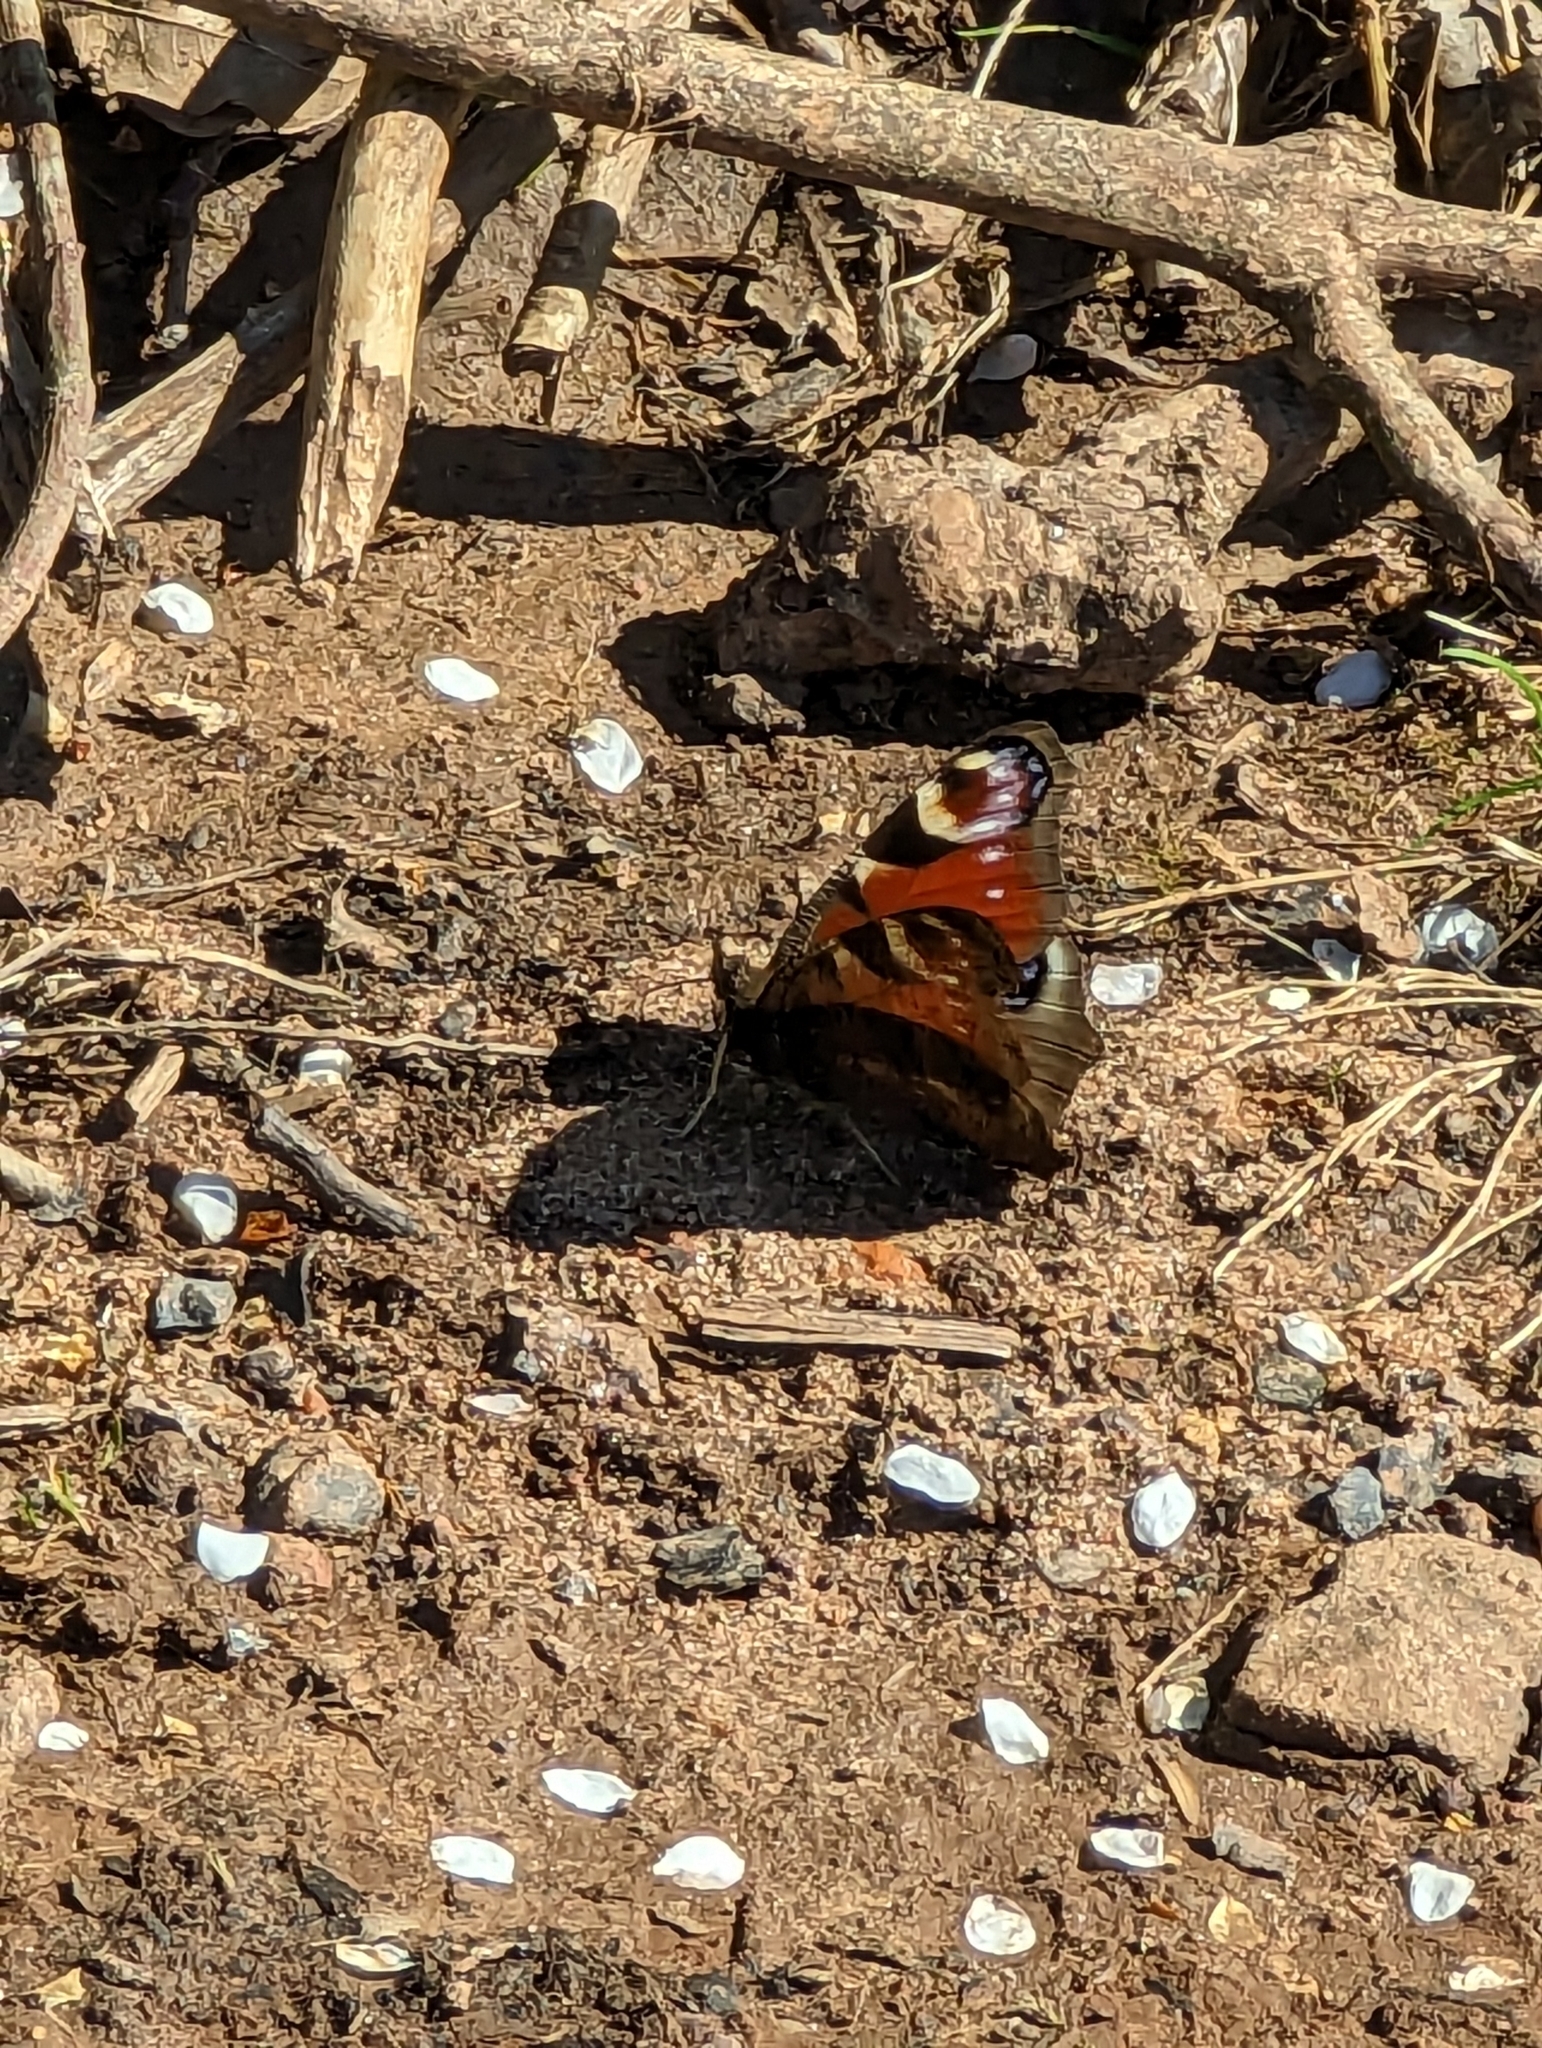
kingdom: Animalia
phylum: Arthropoda
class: Insecta
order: Lepidoptera
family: Nymphalidae
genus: Aglais
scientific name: Aglais io
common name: Peacock
